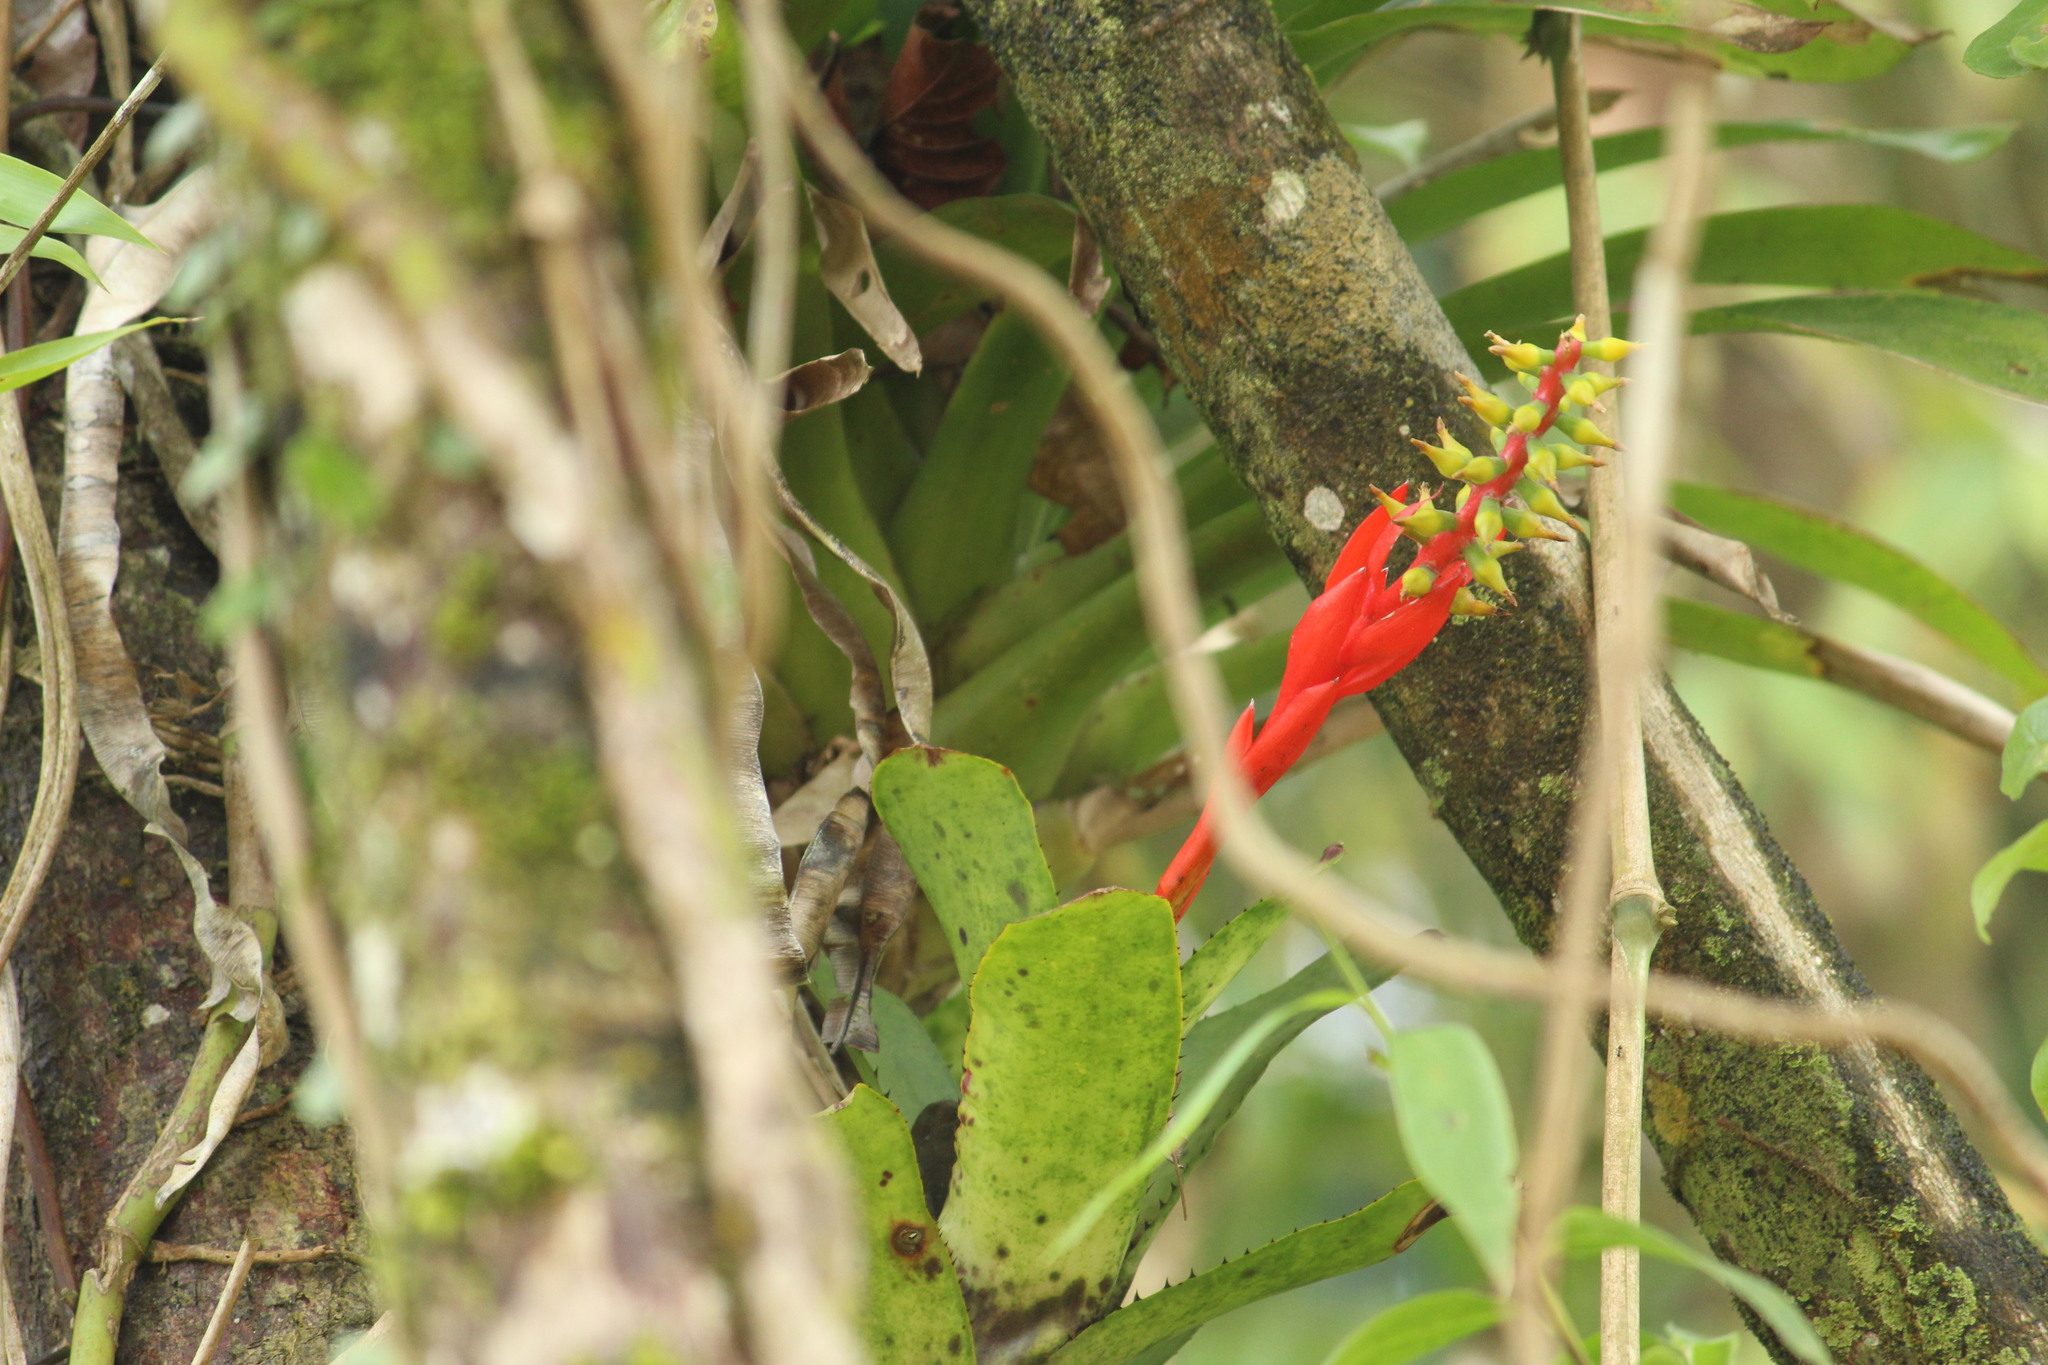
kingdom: Plantae
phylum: Tracheophyta
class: Liliopsida
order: Poales
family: Bromeliaceae
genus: Aechmea
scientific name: Aechmea nudicaulis
